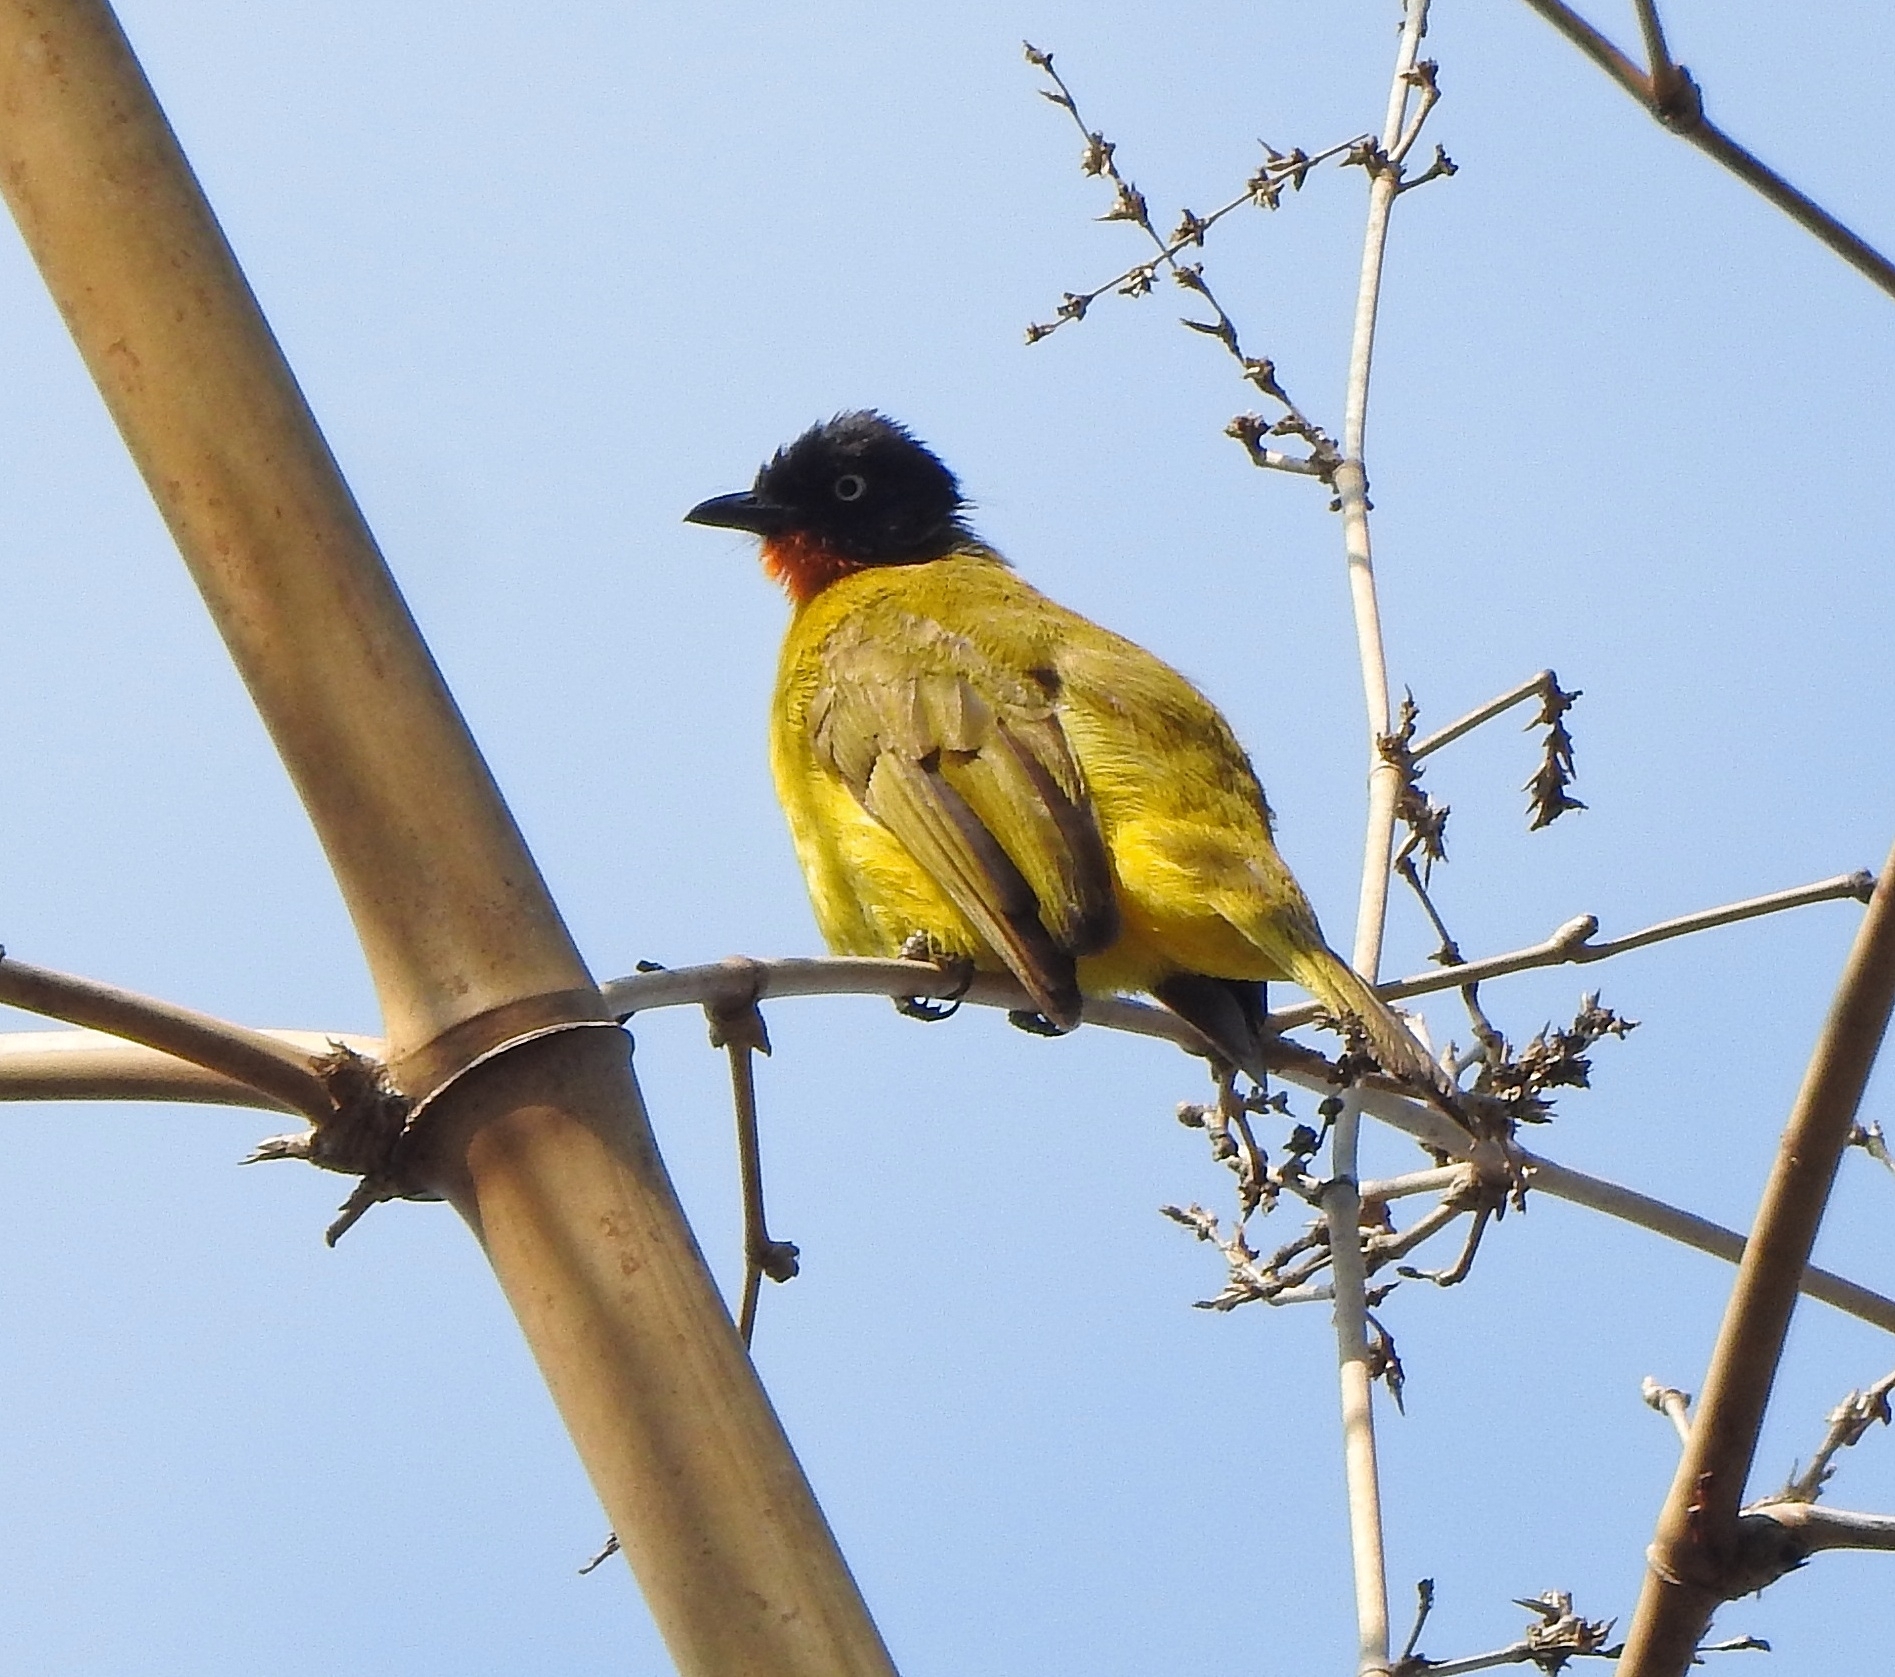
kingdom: Animalia
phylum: Chordata
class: Aves
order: Passeriformes
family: Pycnonotidae
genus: Pycnonotus
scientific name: Pycnonotus gularis
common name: Flame-throated bulbul
